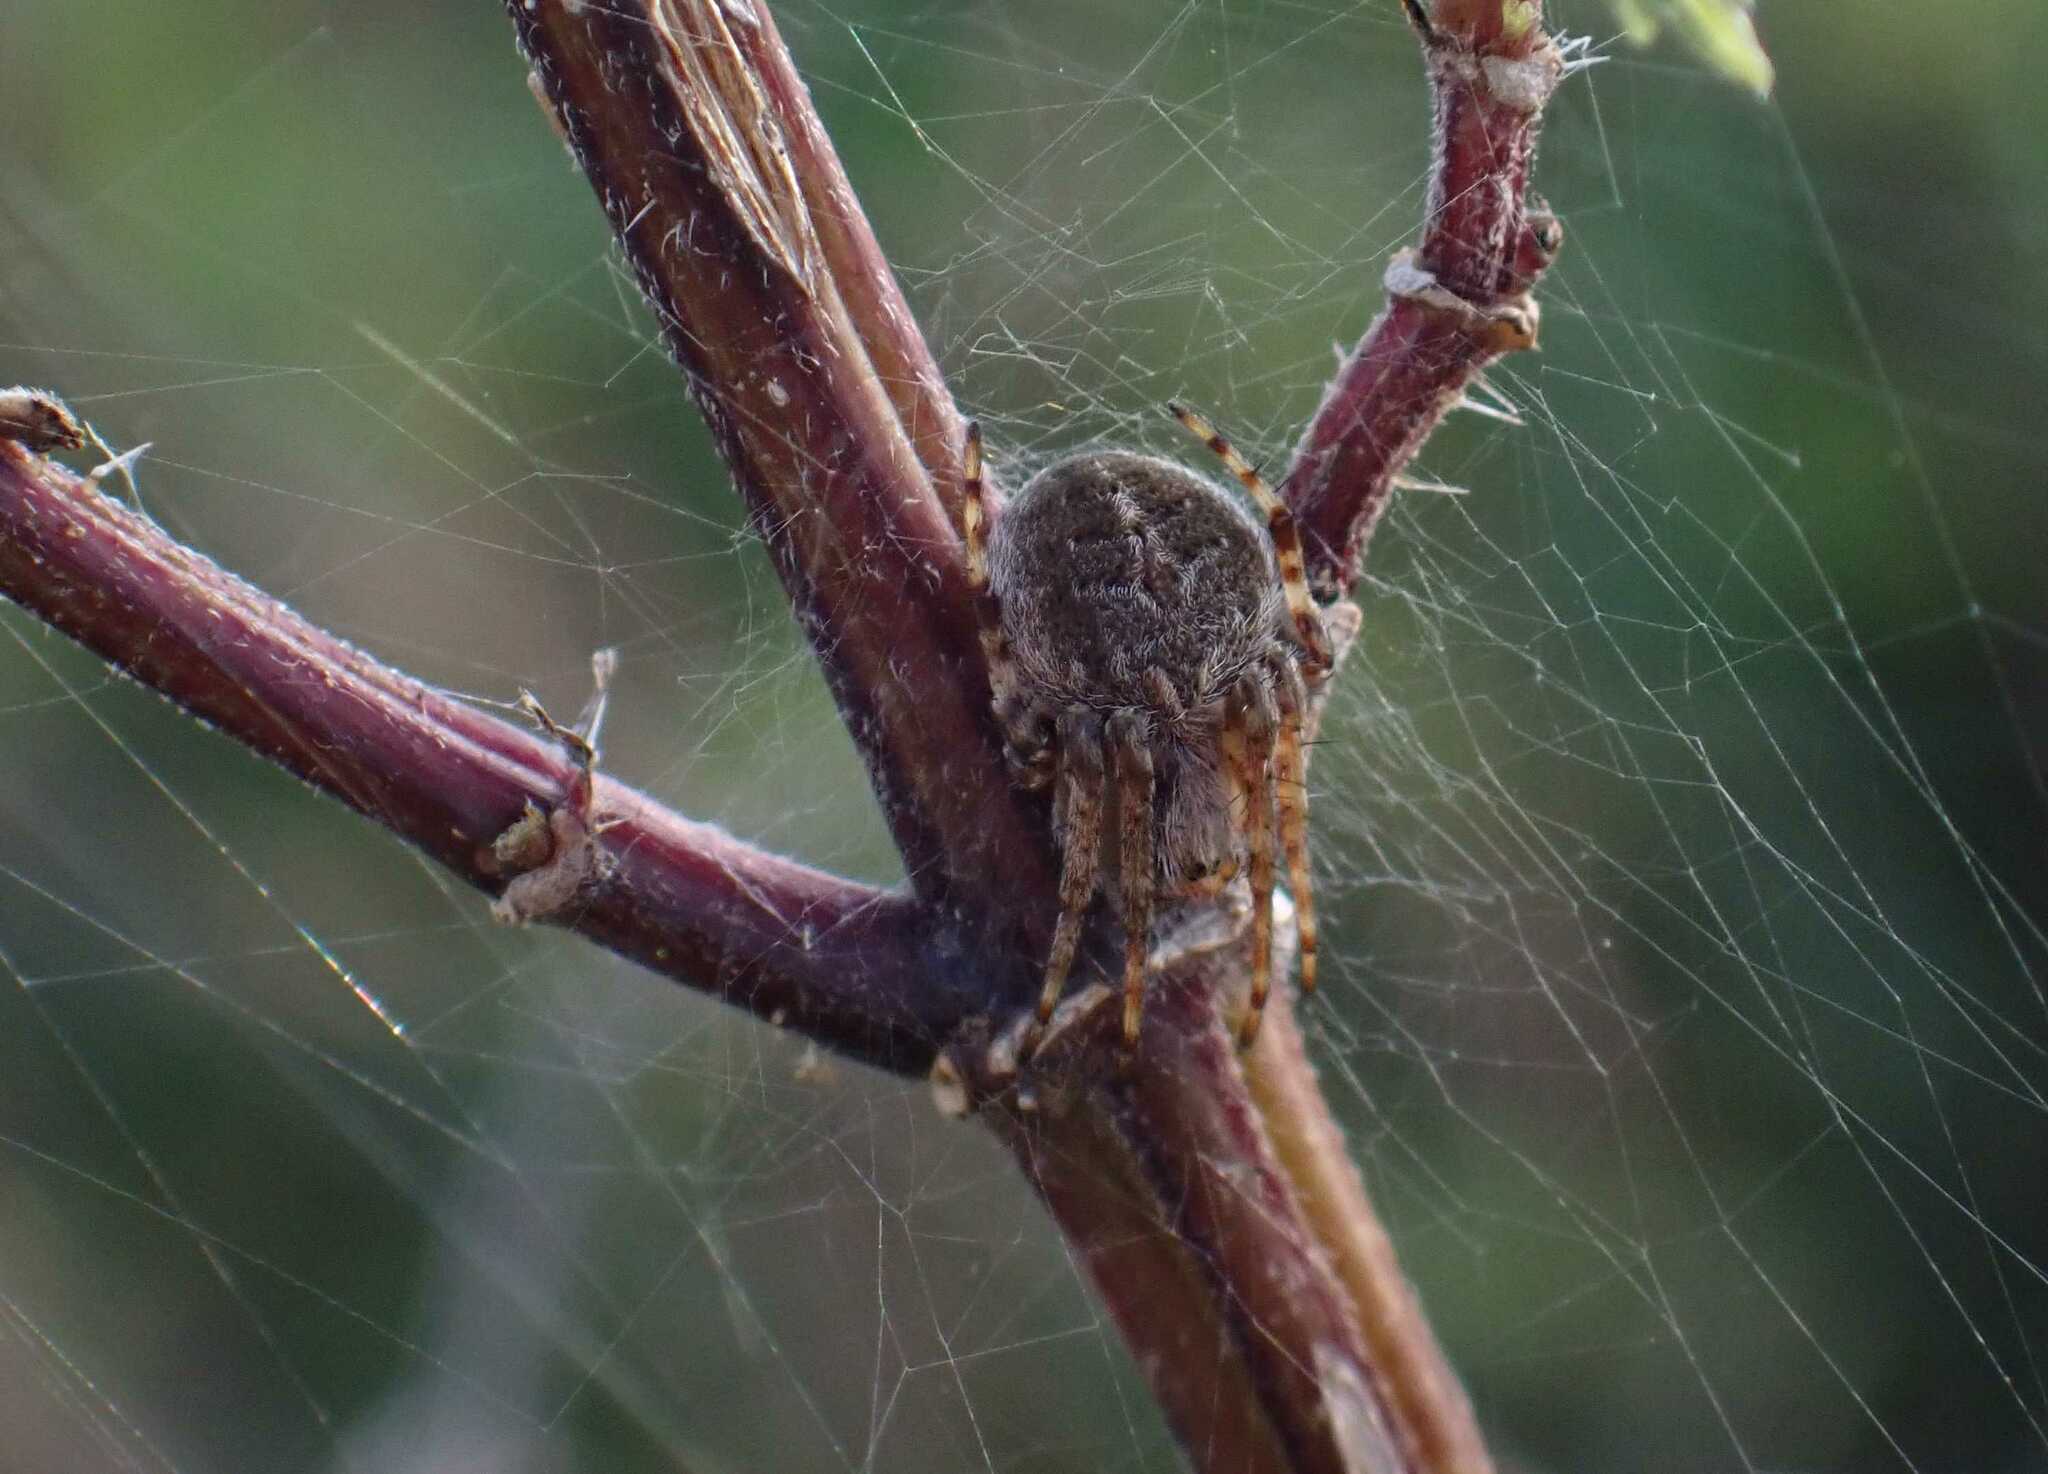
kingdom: Animalia
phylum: Arthropoda
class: Arachnida
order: Araneae
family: Araneidae
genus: Agalenatea
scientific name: Agalenatea redii
